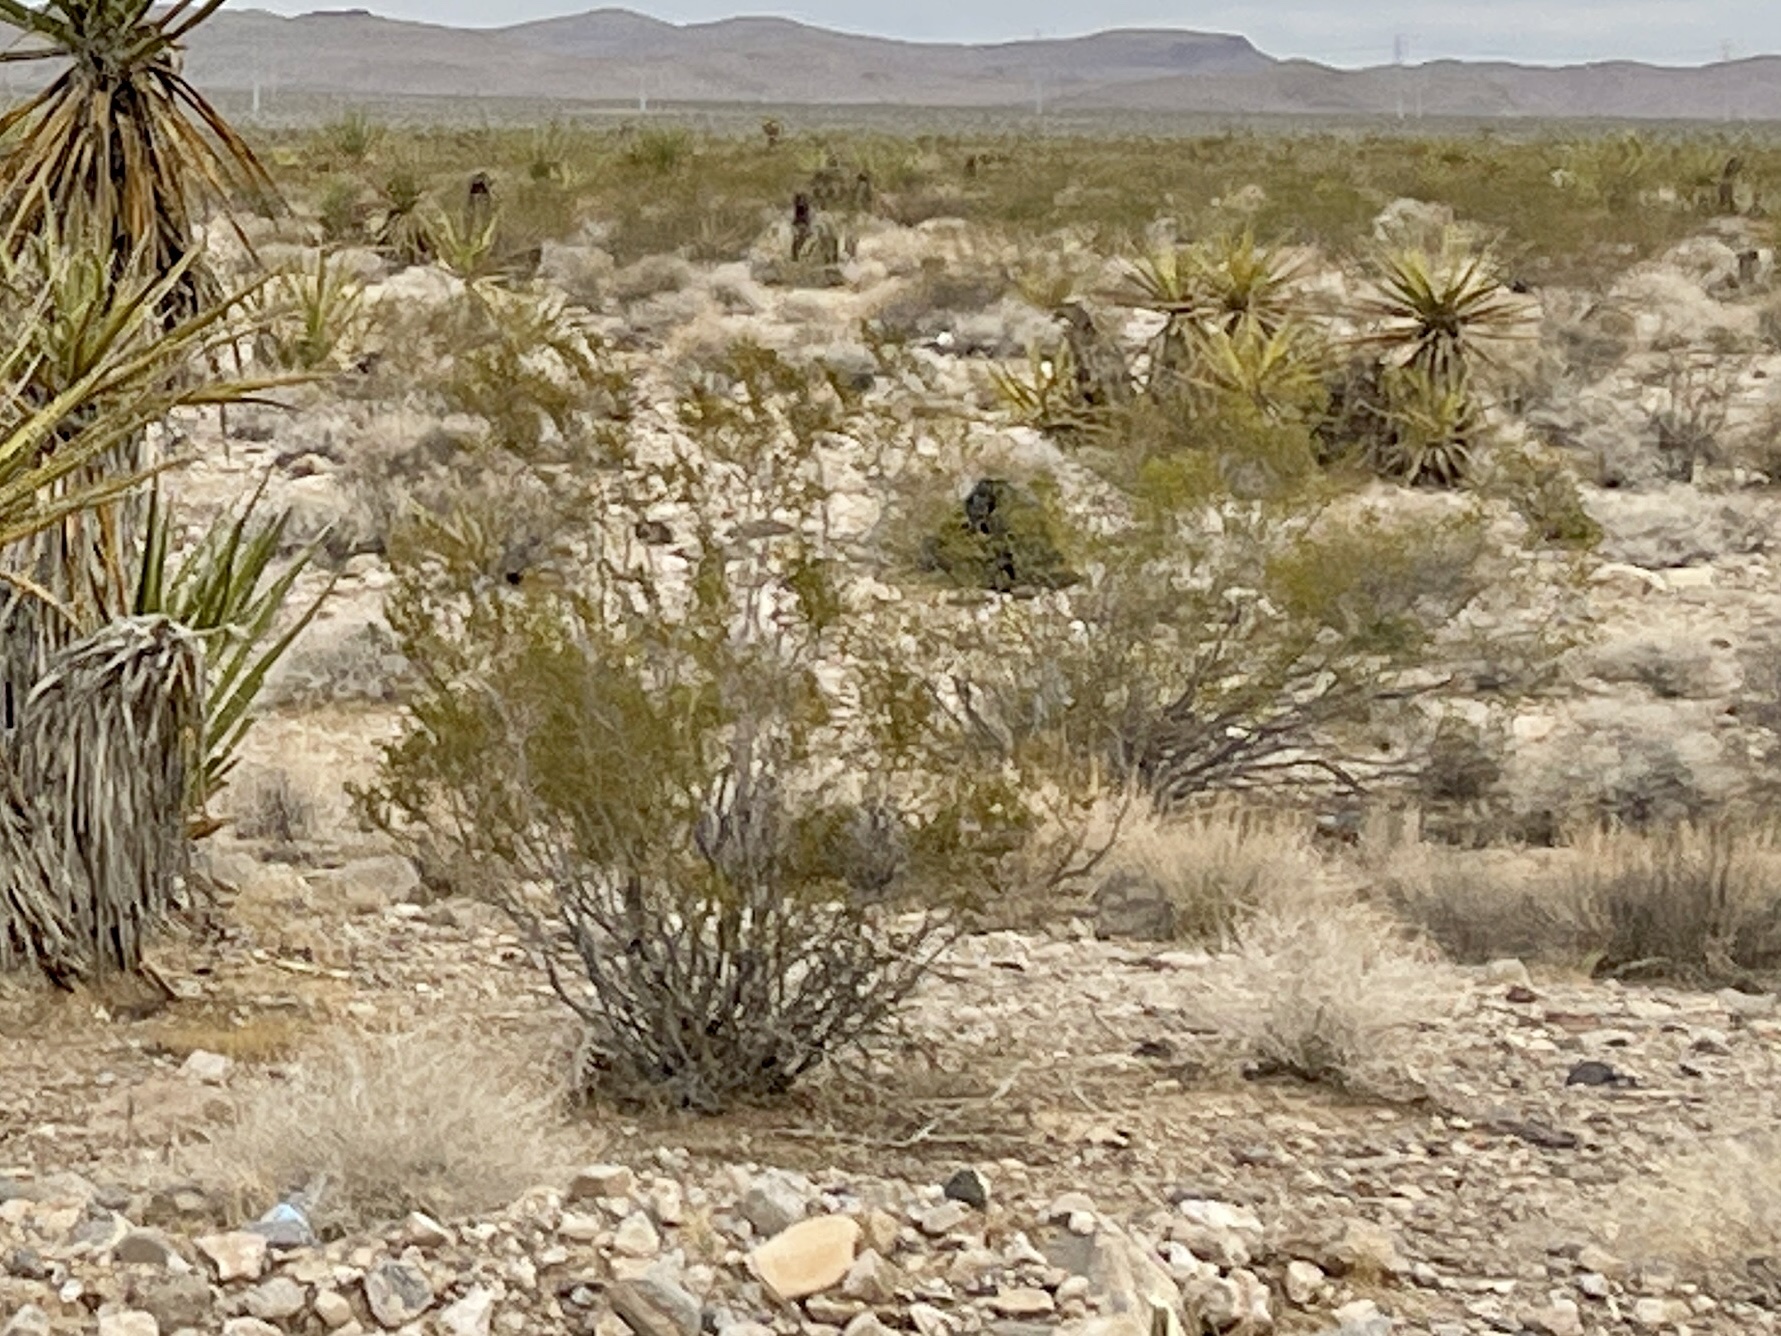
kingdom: Plantae
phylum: Tracheophyta
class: Magnoliopsida
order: Zygophyllales
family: Zygophyllaceae
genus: Larrea
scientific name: Larrea tridentata
